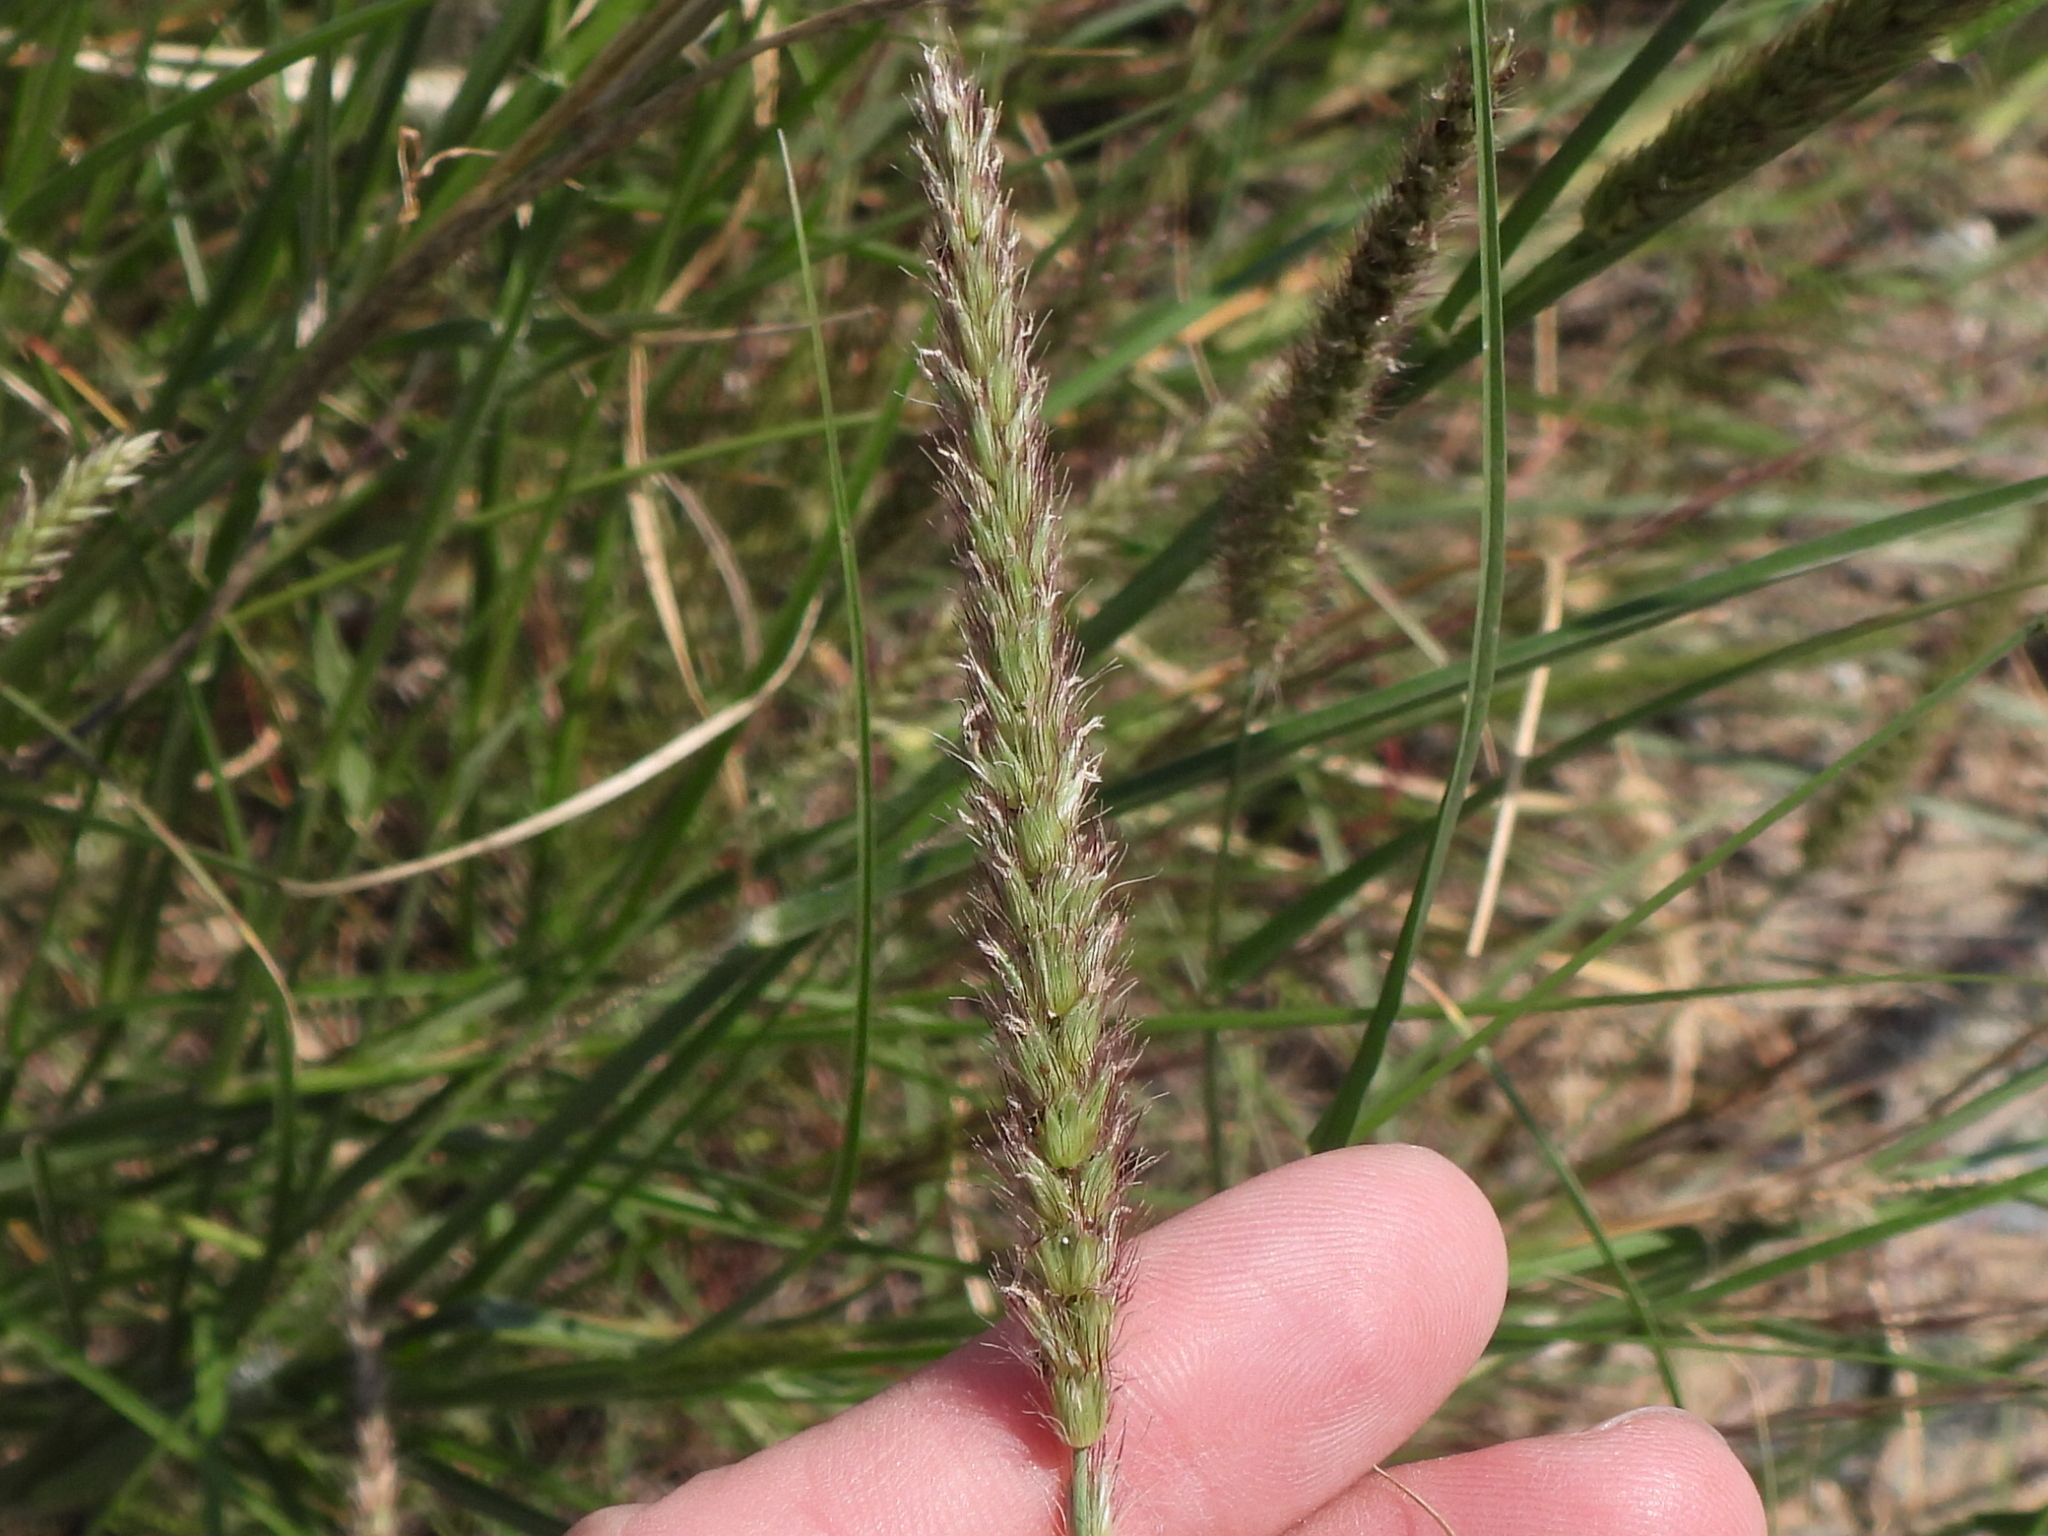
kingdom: Plantae
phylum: Tracheophyta
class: Liliopsida
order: Poales
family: Poaceae
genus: Cenchrus
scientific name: Cenchrus ciliaris
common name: Buffelgrass
